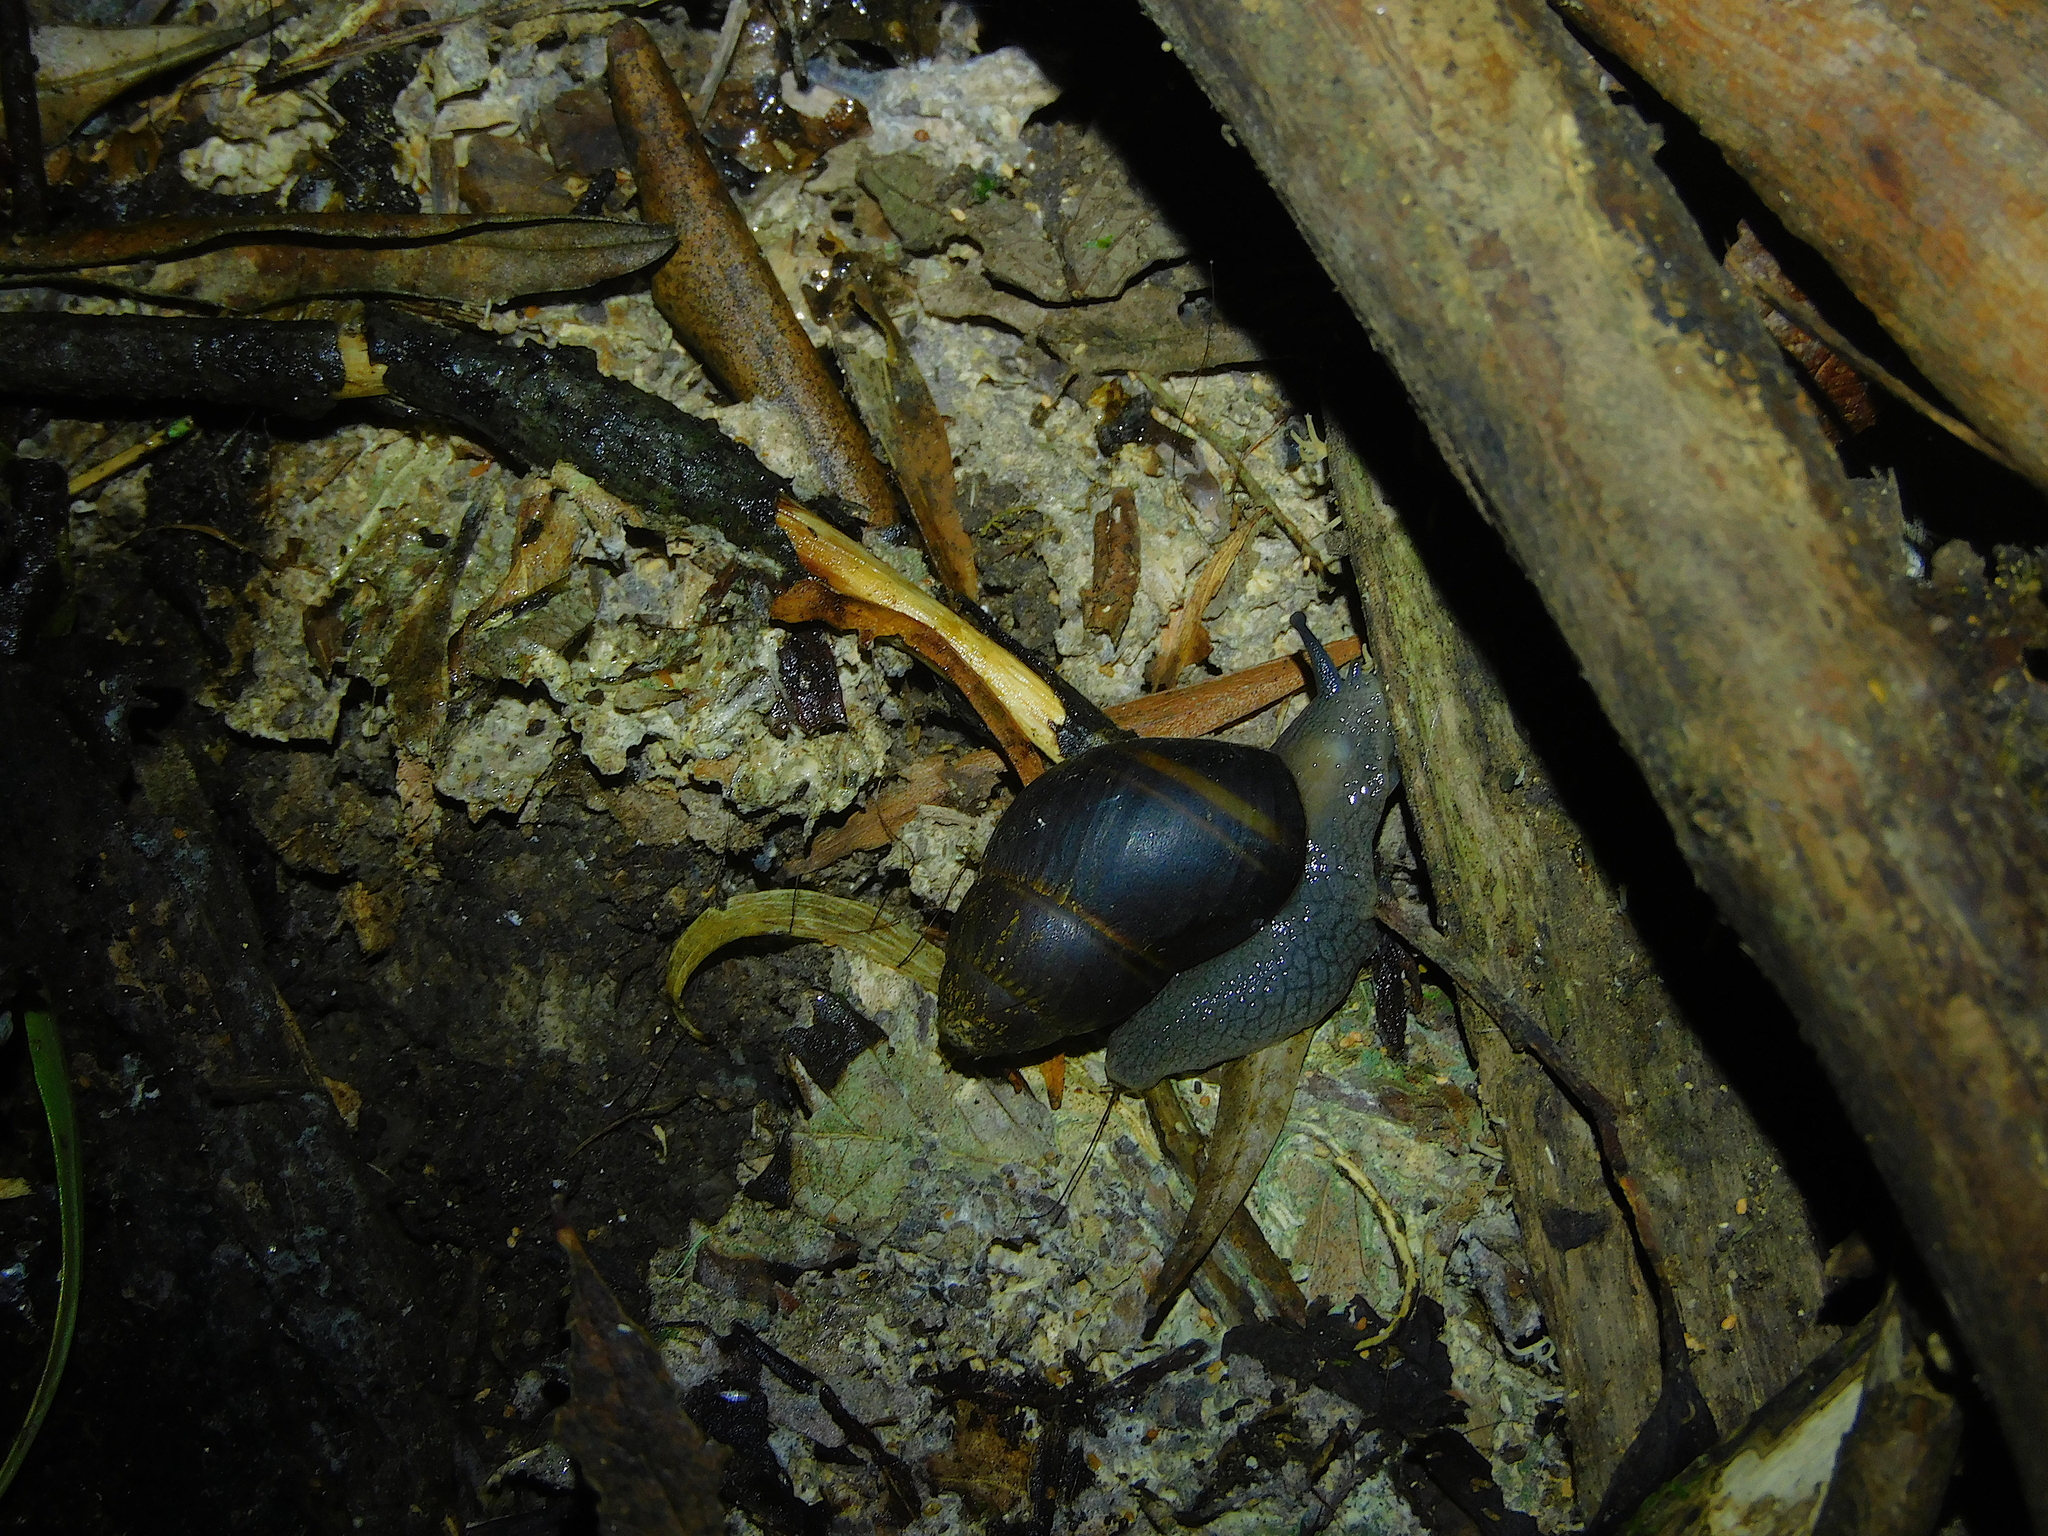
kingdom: Animalia
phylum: Mollusca
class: Gastropoda
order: Stylommatophora
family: Caryodidae
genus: Caryodes
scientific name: Caryodes dufresnii
